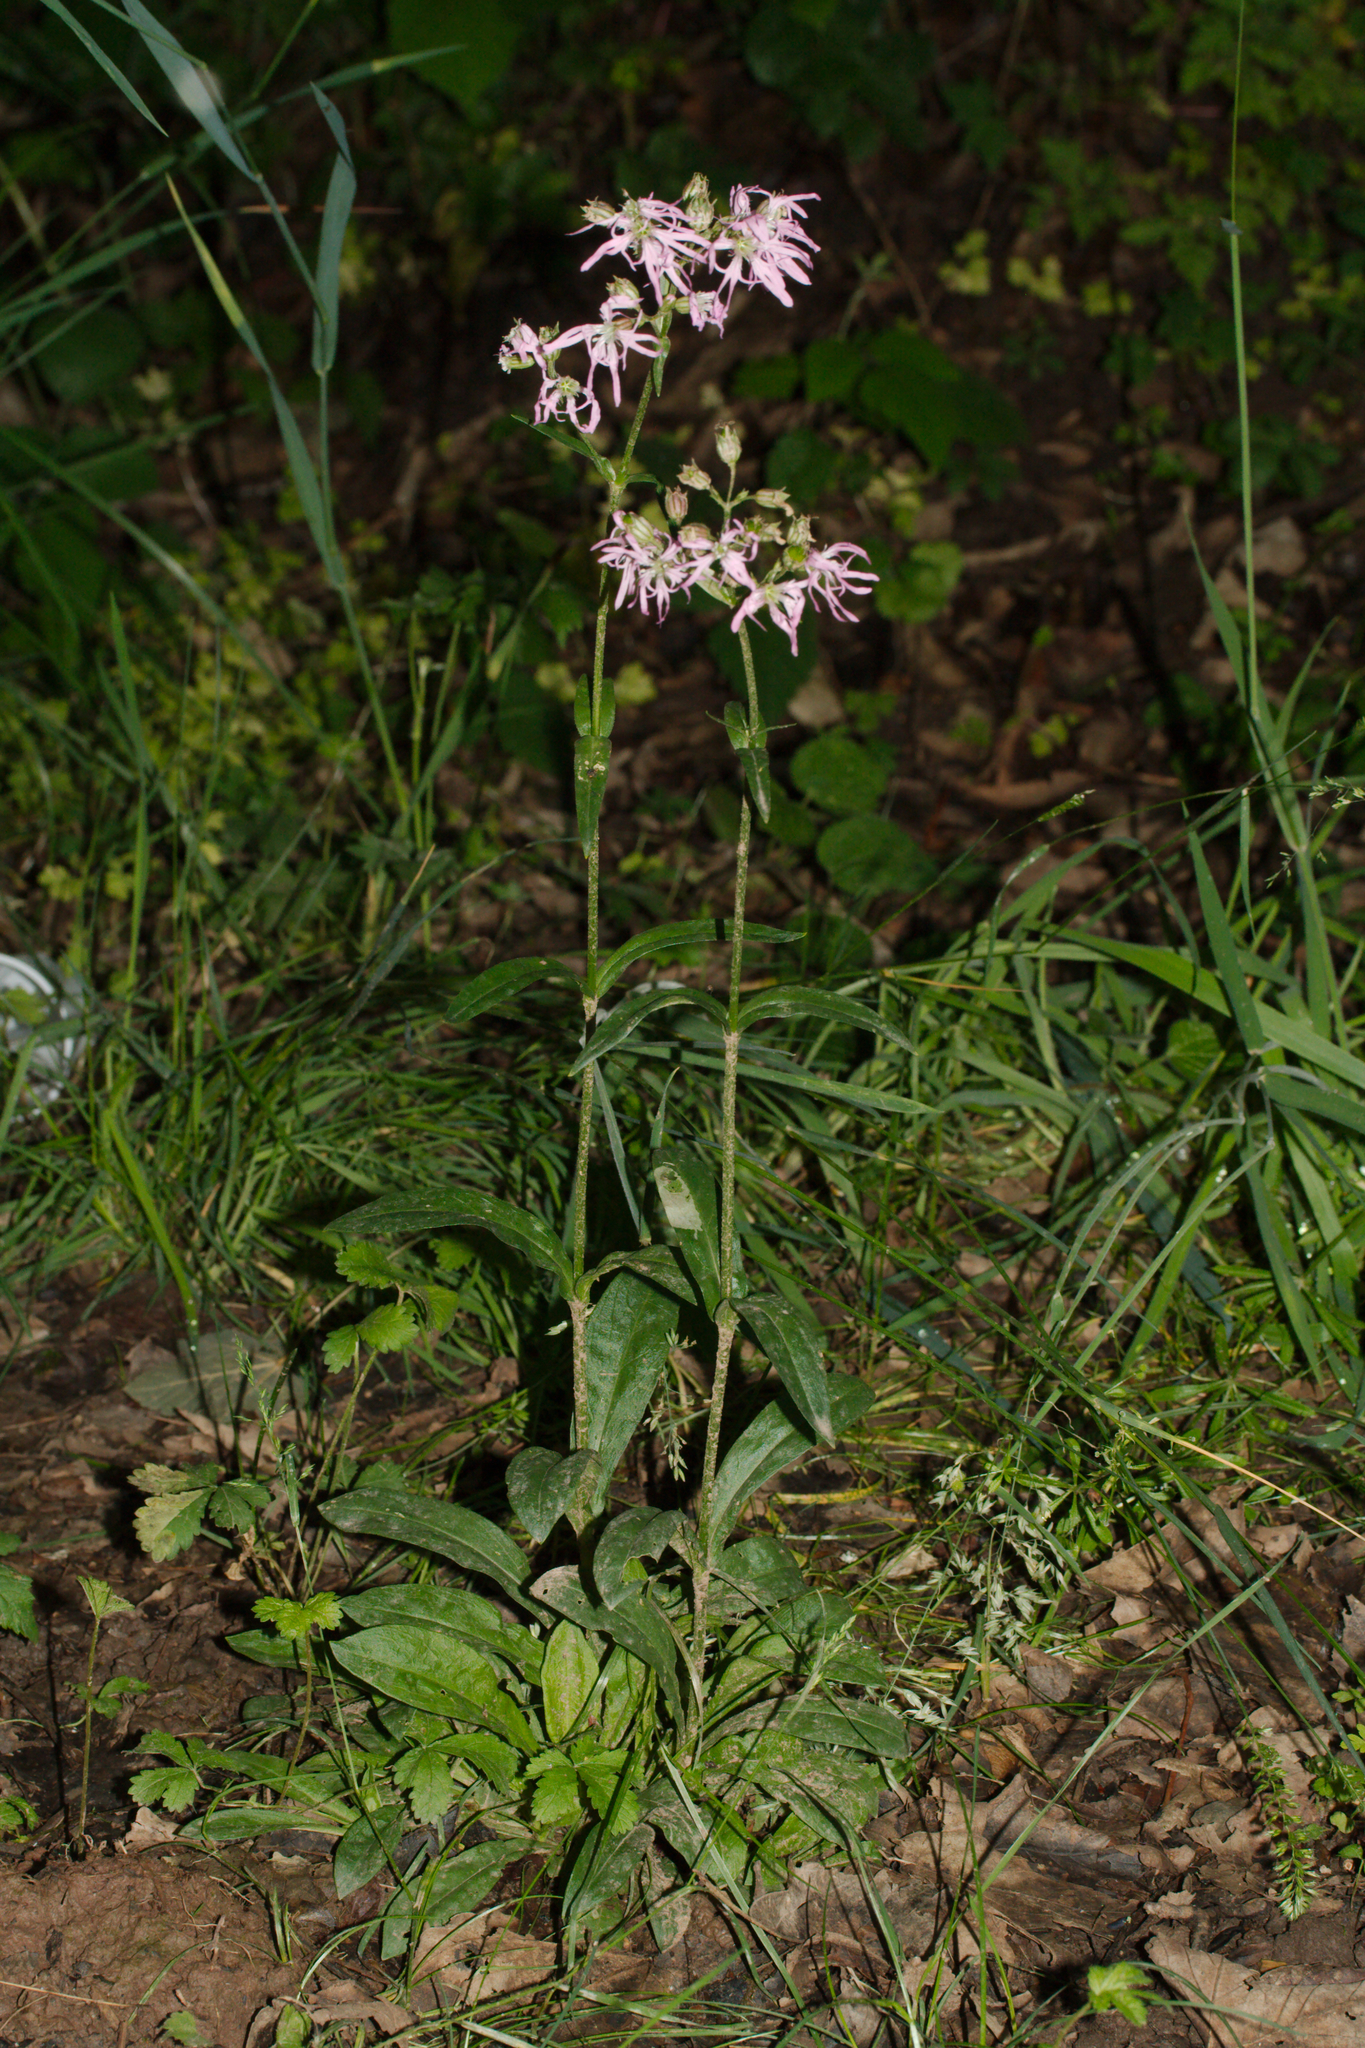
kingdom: Plantae
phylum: Tracheophyta
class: Magnoliopsida
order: Caryophyllales
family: Caryophyllaceae
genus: Silene
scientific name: Silene flos-cuculi
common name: Ragged-robin
